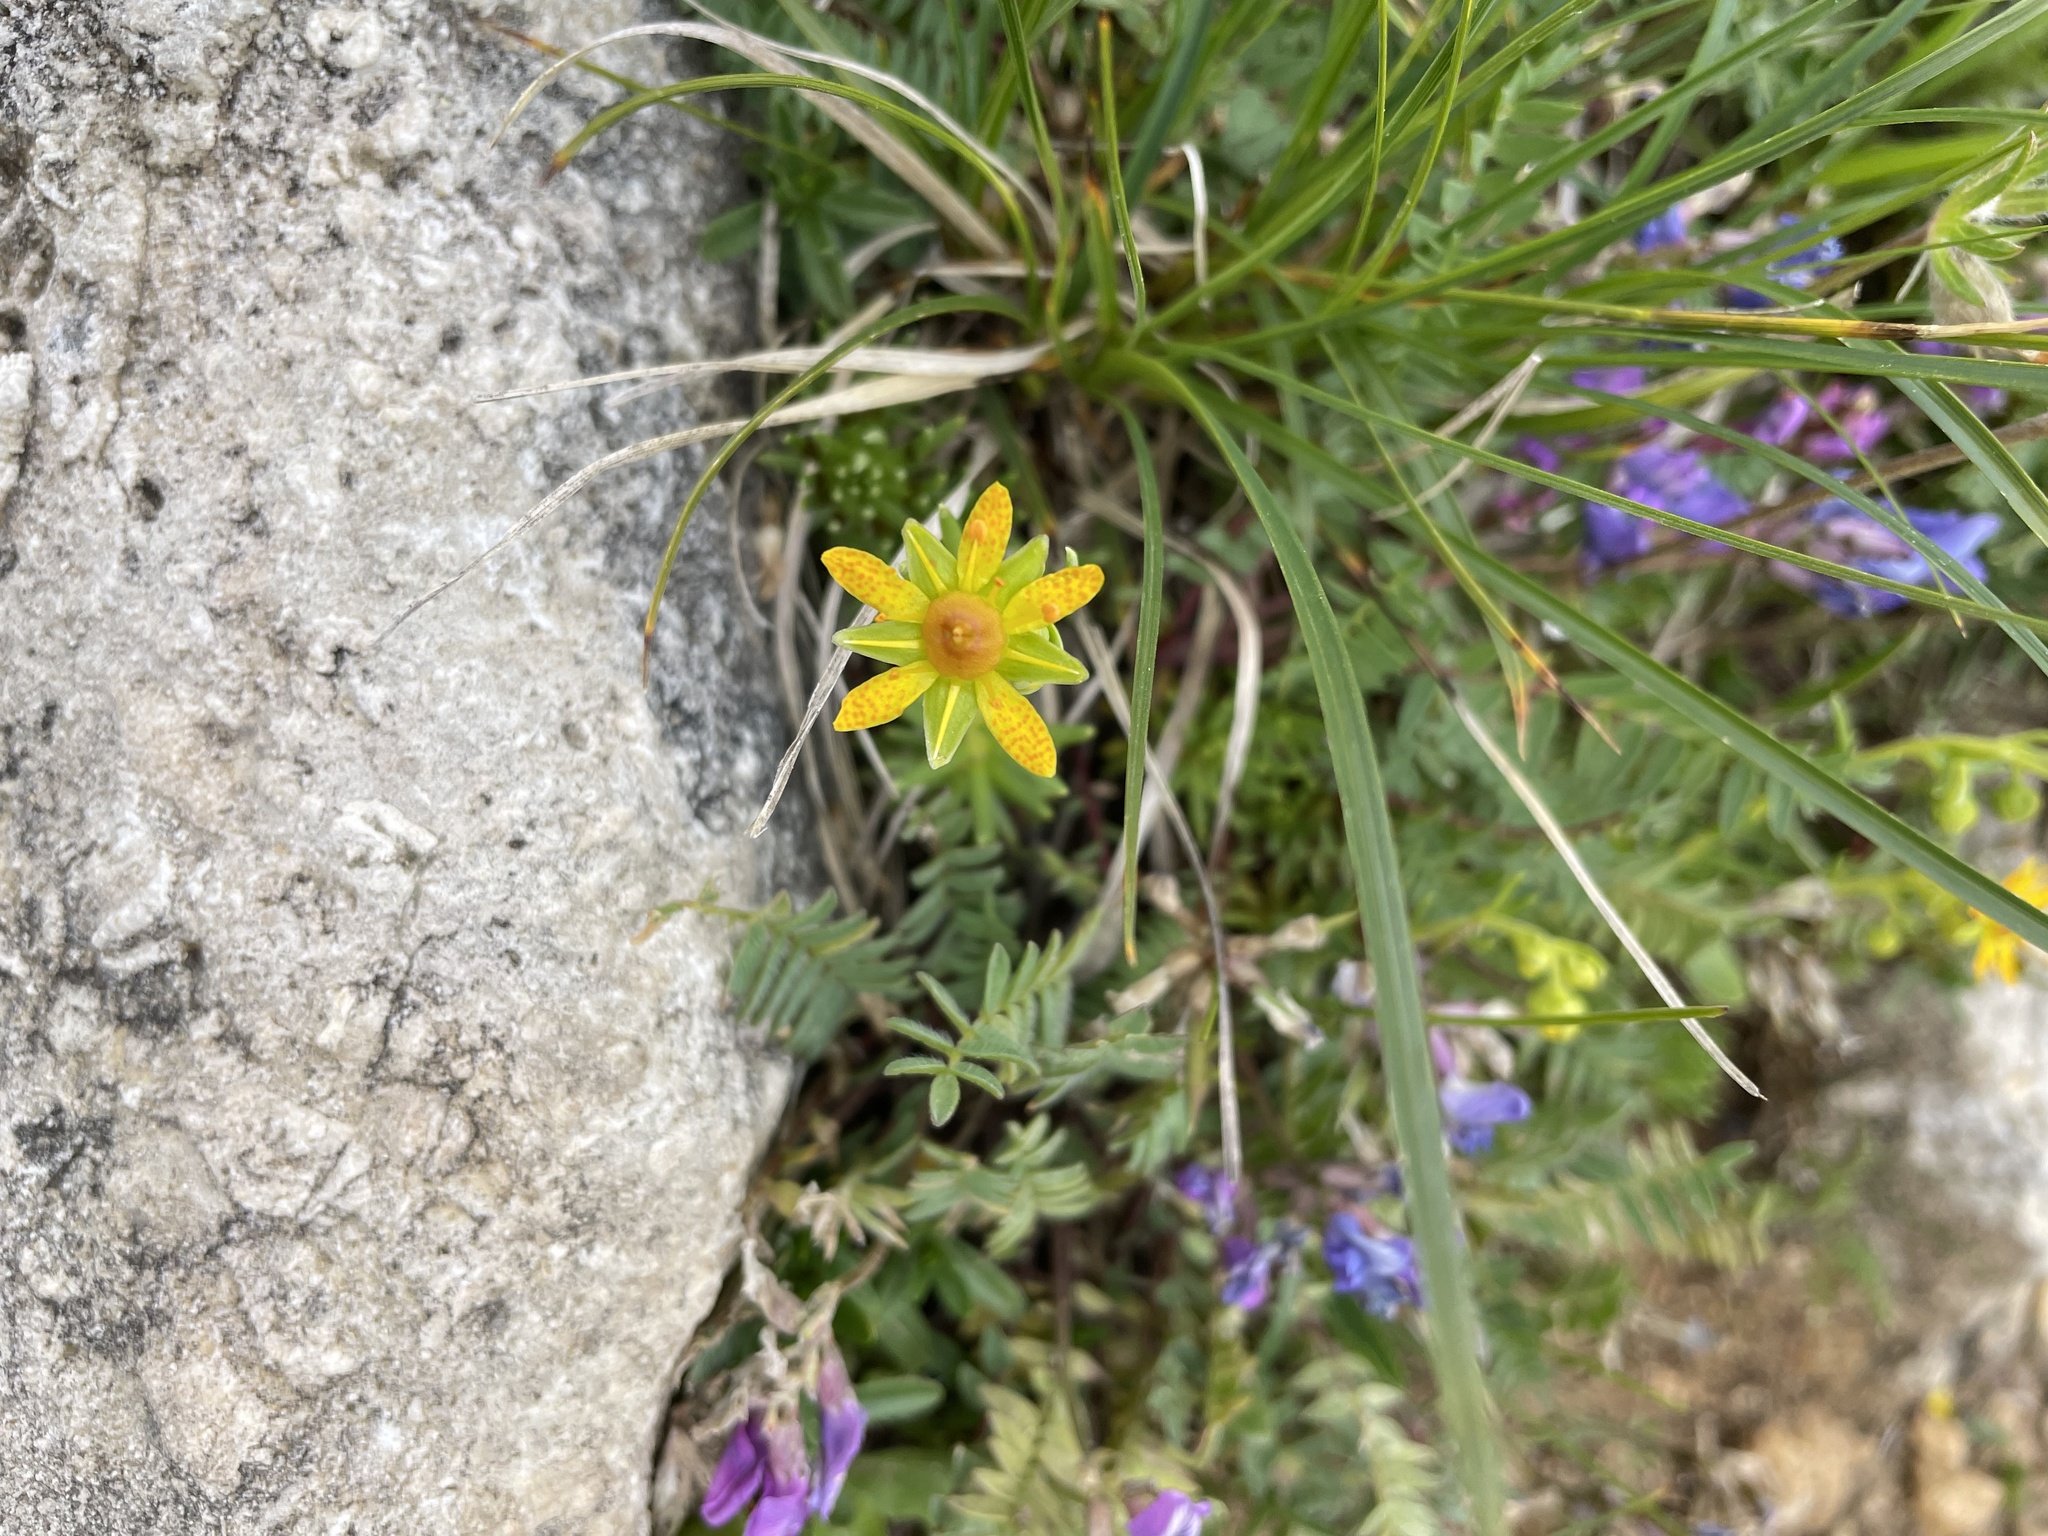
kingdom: Plantae
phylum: Tracheophyta
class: Magnoliopsida
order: Saxifragales
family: Saxifragaceae
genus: Saxifraga
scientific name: Saxifraga aizoides
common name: Yellow mountain saxifrage
